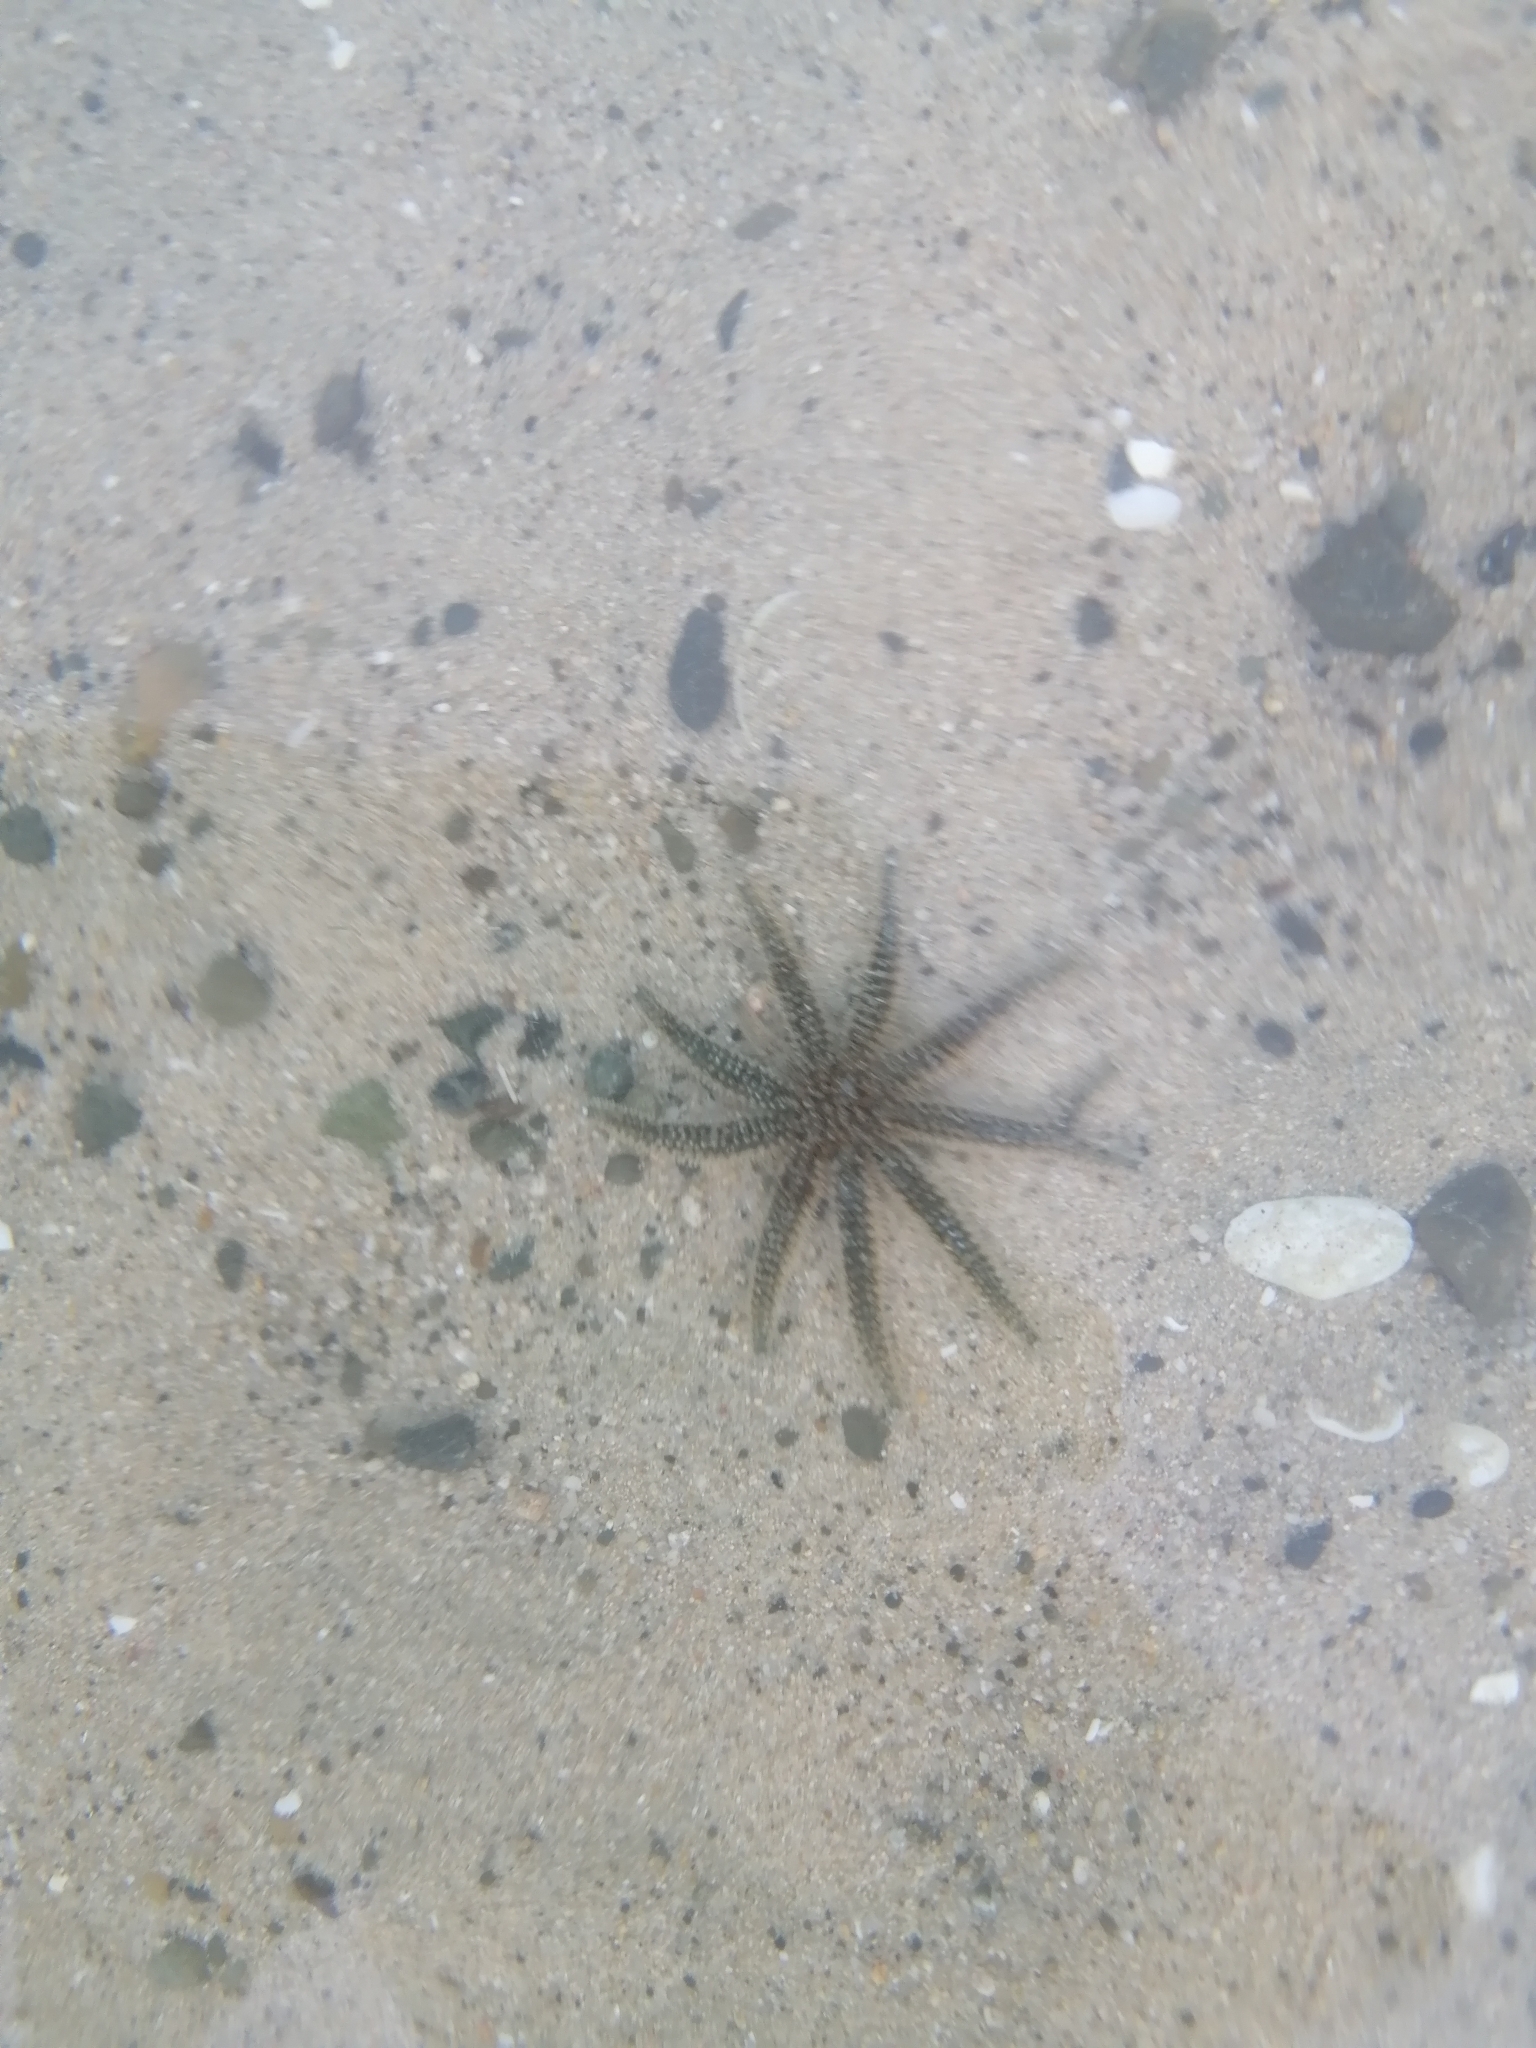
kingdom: Animalia
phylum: Echinodermata
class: Asteroidea
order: Forcipulatida
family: Asteriidae
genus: Coscinasterias
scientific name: Coscinasterias muricata
